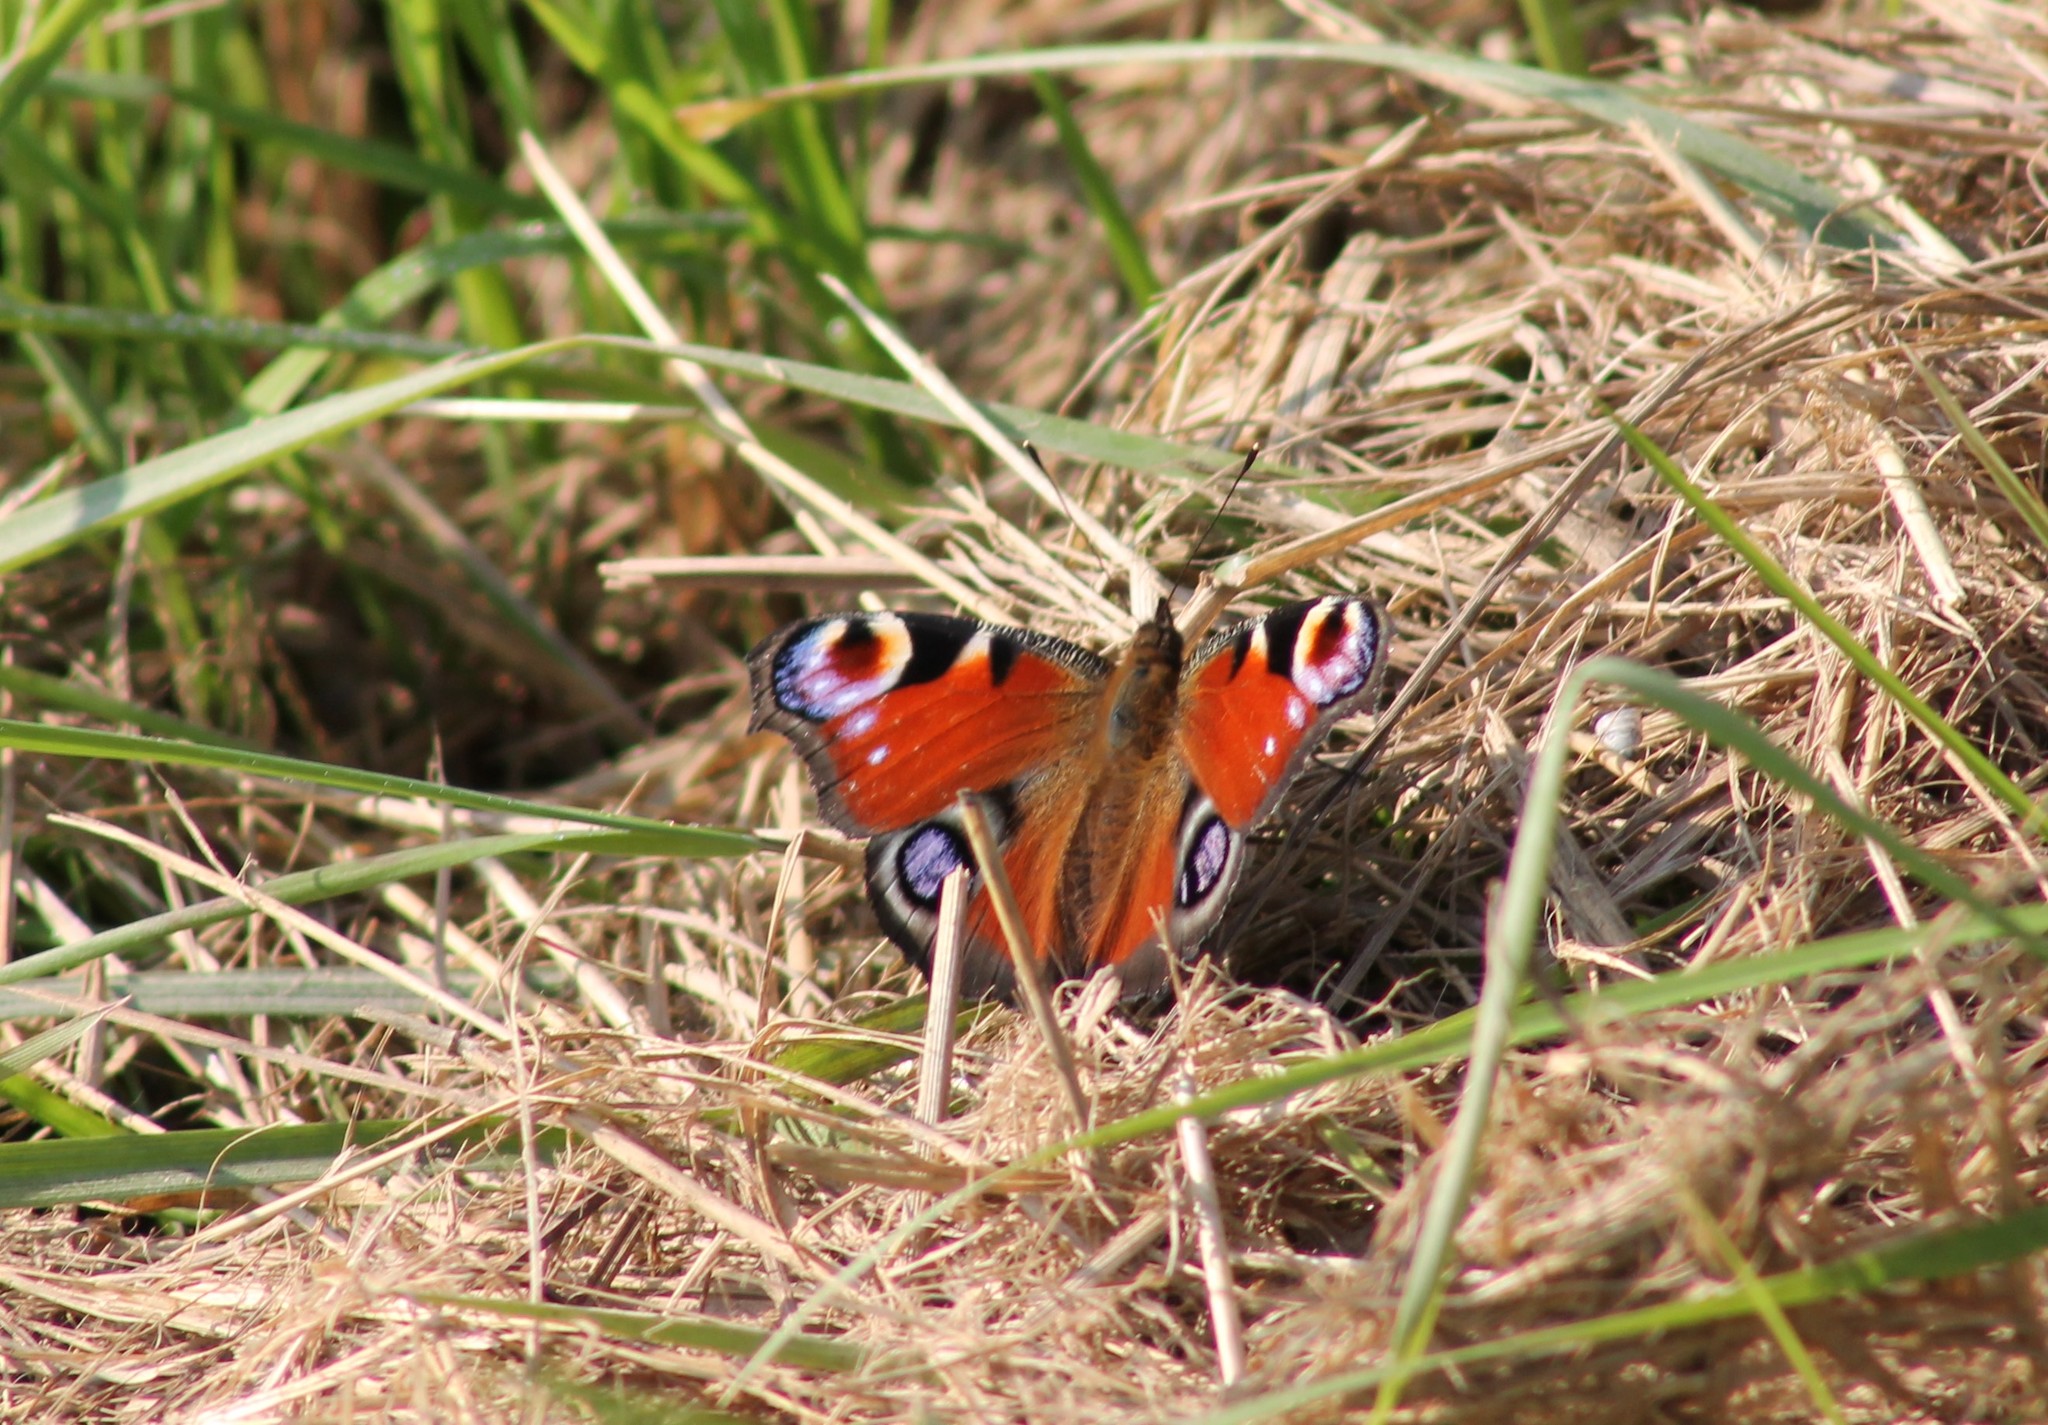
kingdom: Animalia
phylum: Arthropoda
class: Insecta
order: Lepidoptera
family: Nymphalidae
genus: Aglais
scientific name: Aglais io
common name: Peacock
